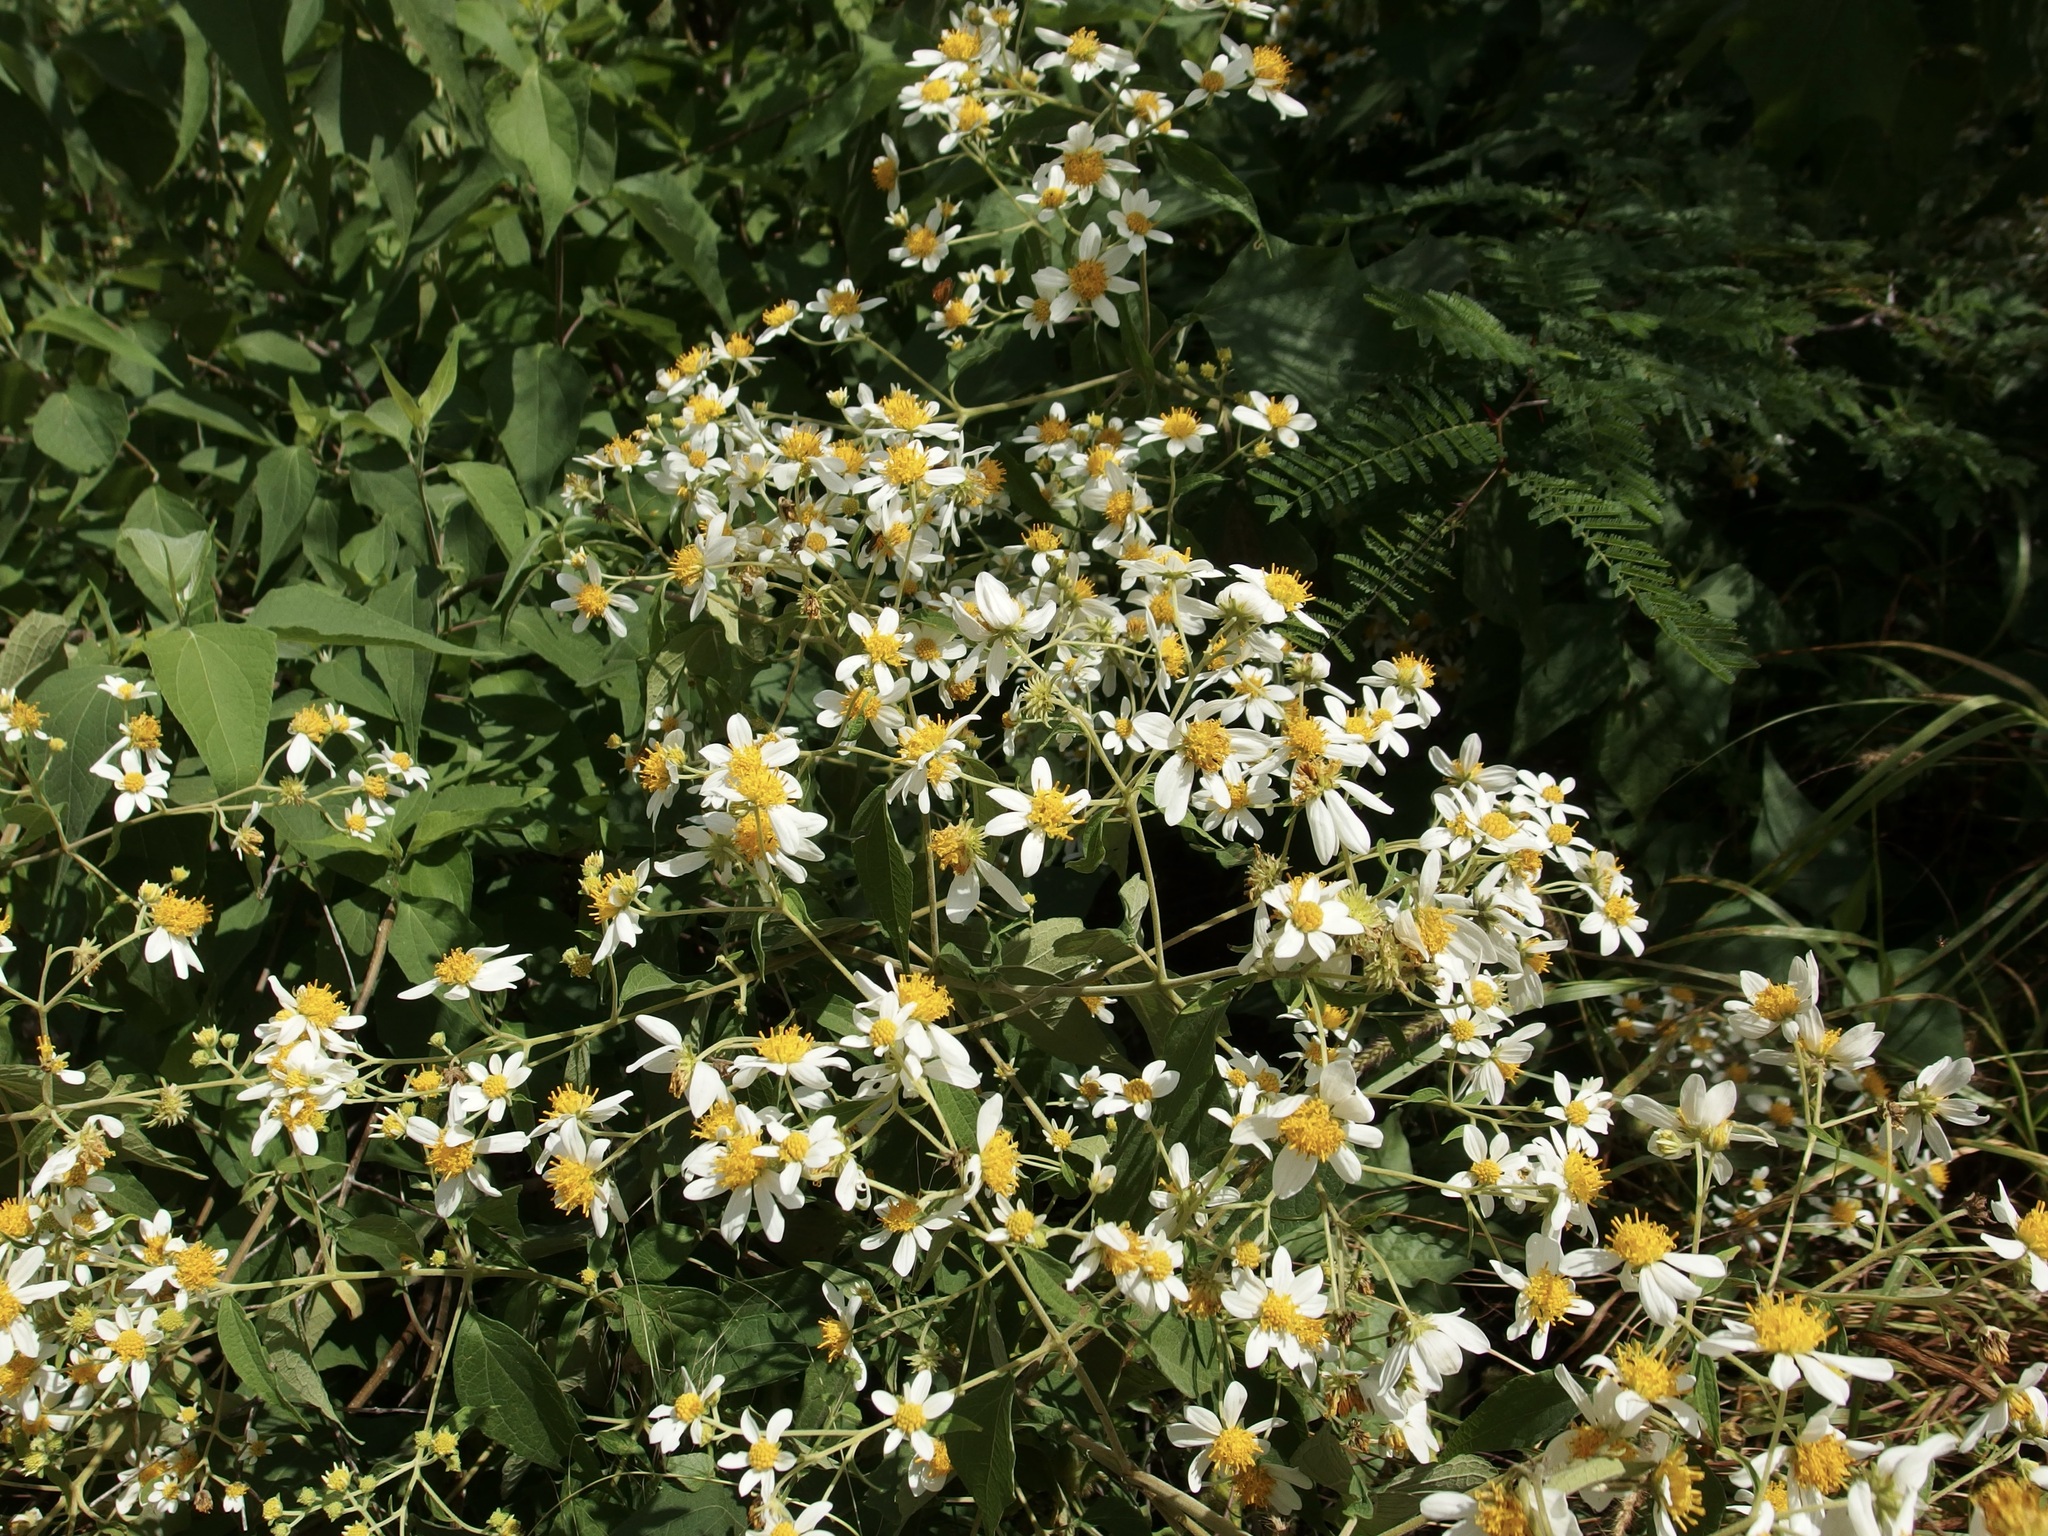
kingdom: Plantae
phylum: Tracheophyta
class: Magnoliopsida
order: Asterales
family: Asteraceae
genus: Montanoa
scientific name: Montanoa leucantha
